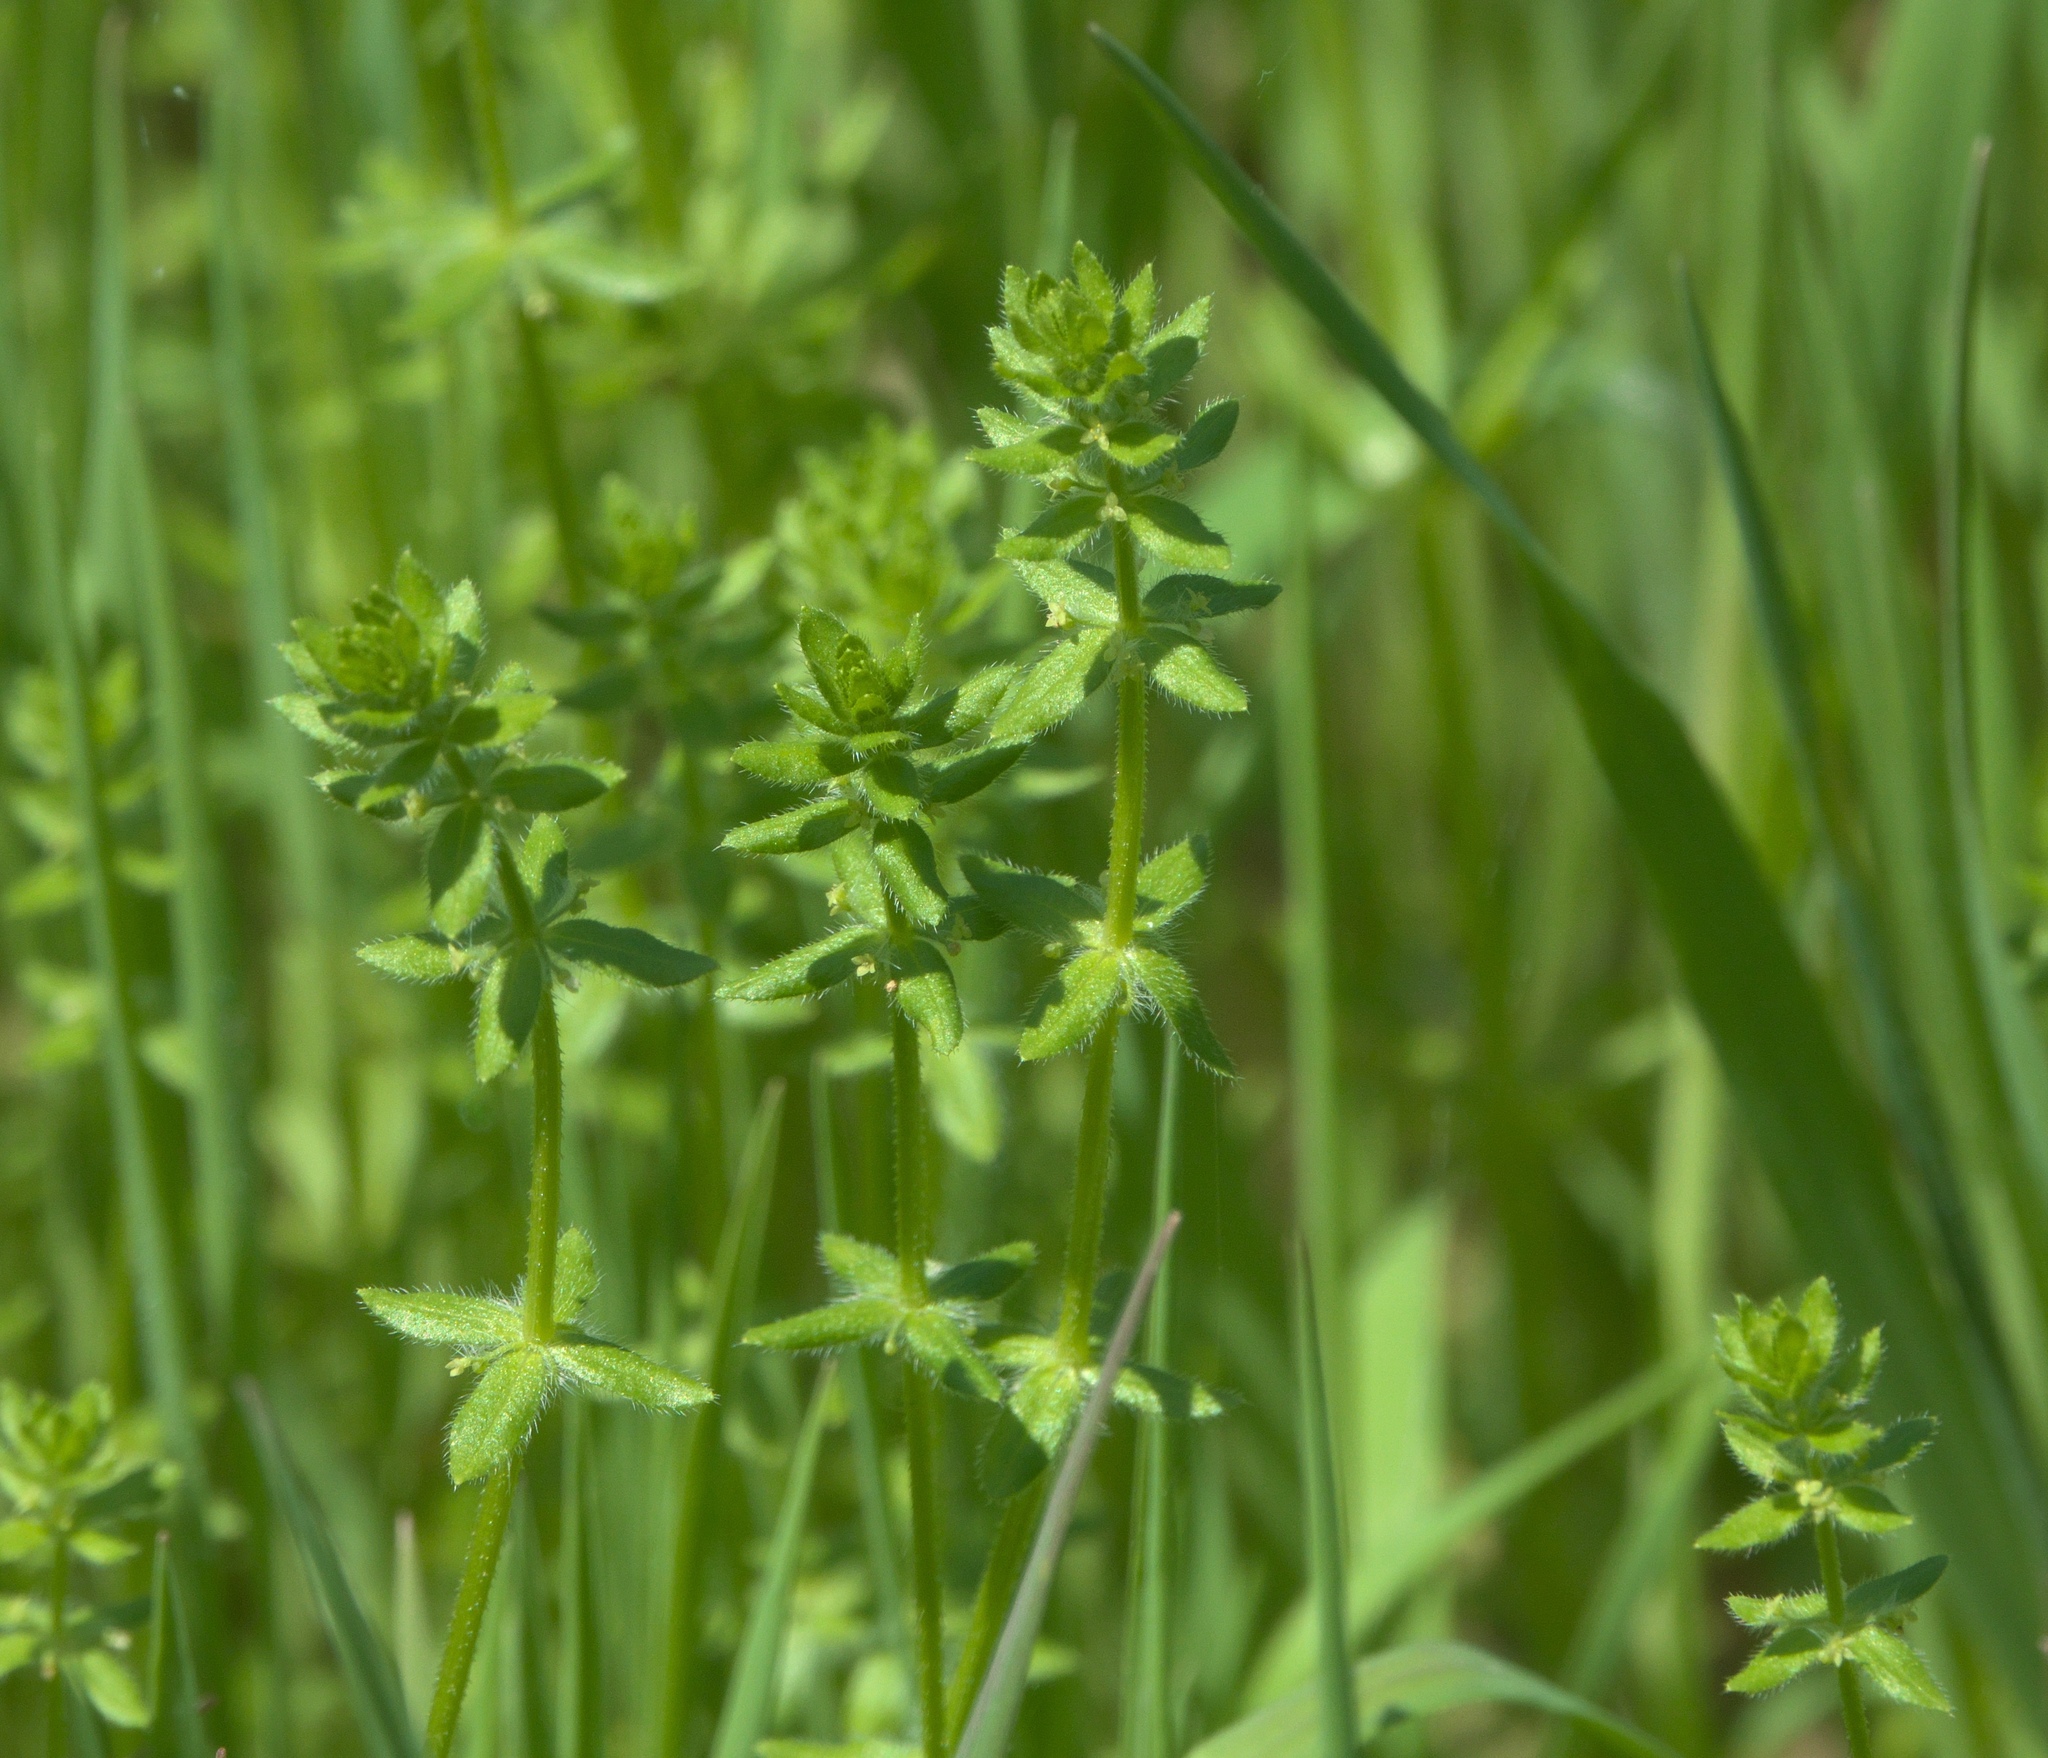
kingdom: Plantae
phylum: Tracheophyta
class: Magnoliopsida
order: Gentianales
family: Rubiaceae
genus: Cruciata
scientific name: Cruciata pedemontana
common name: Piedmont bedstraw
